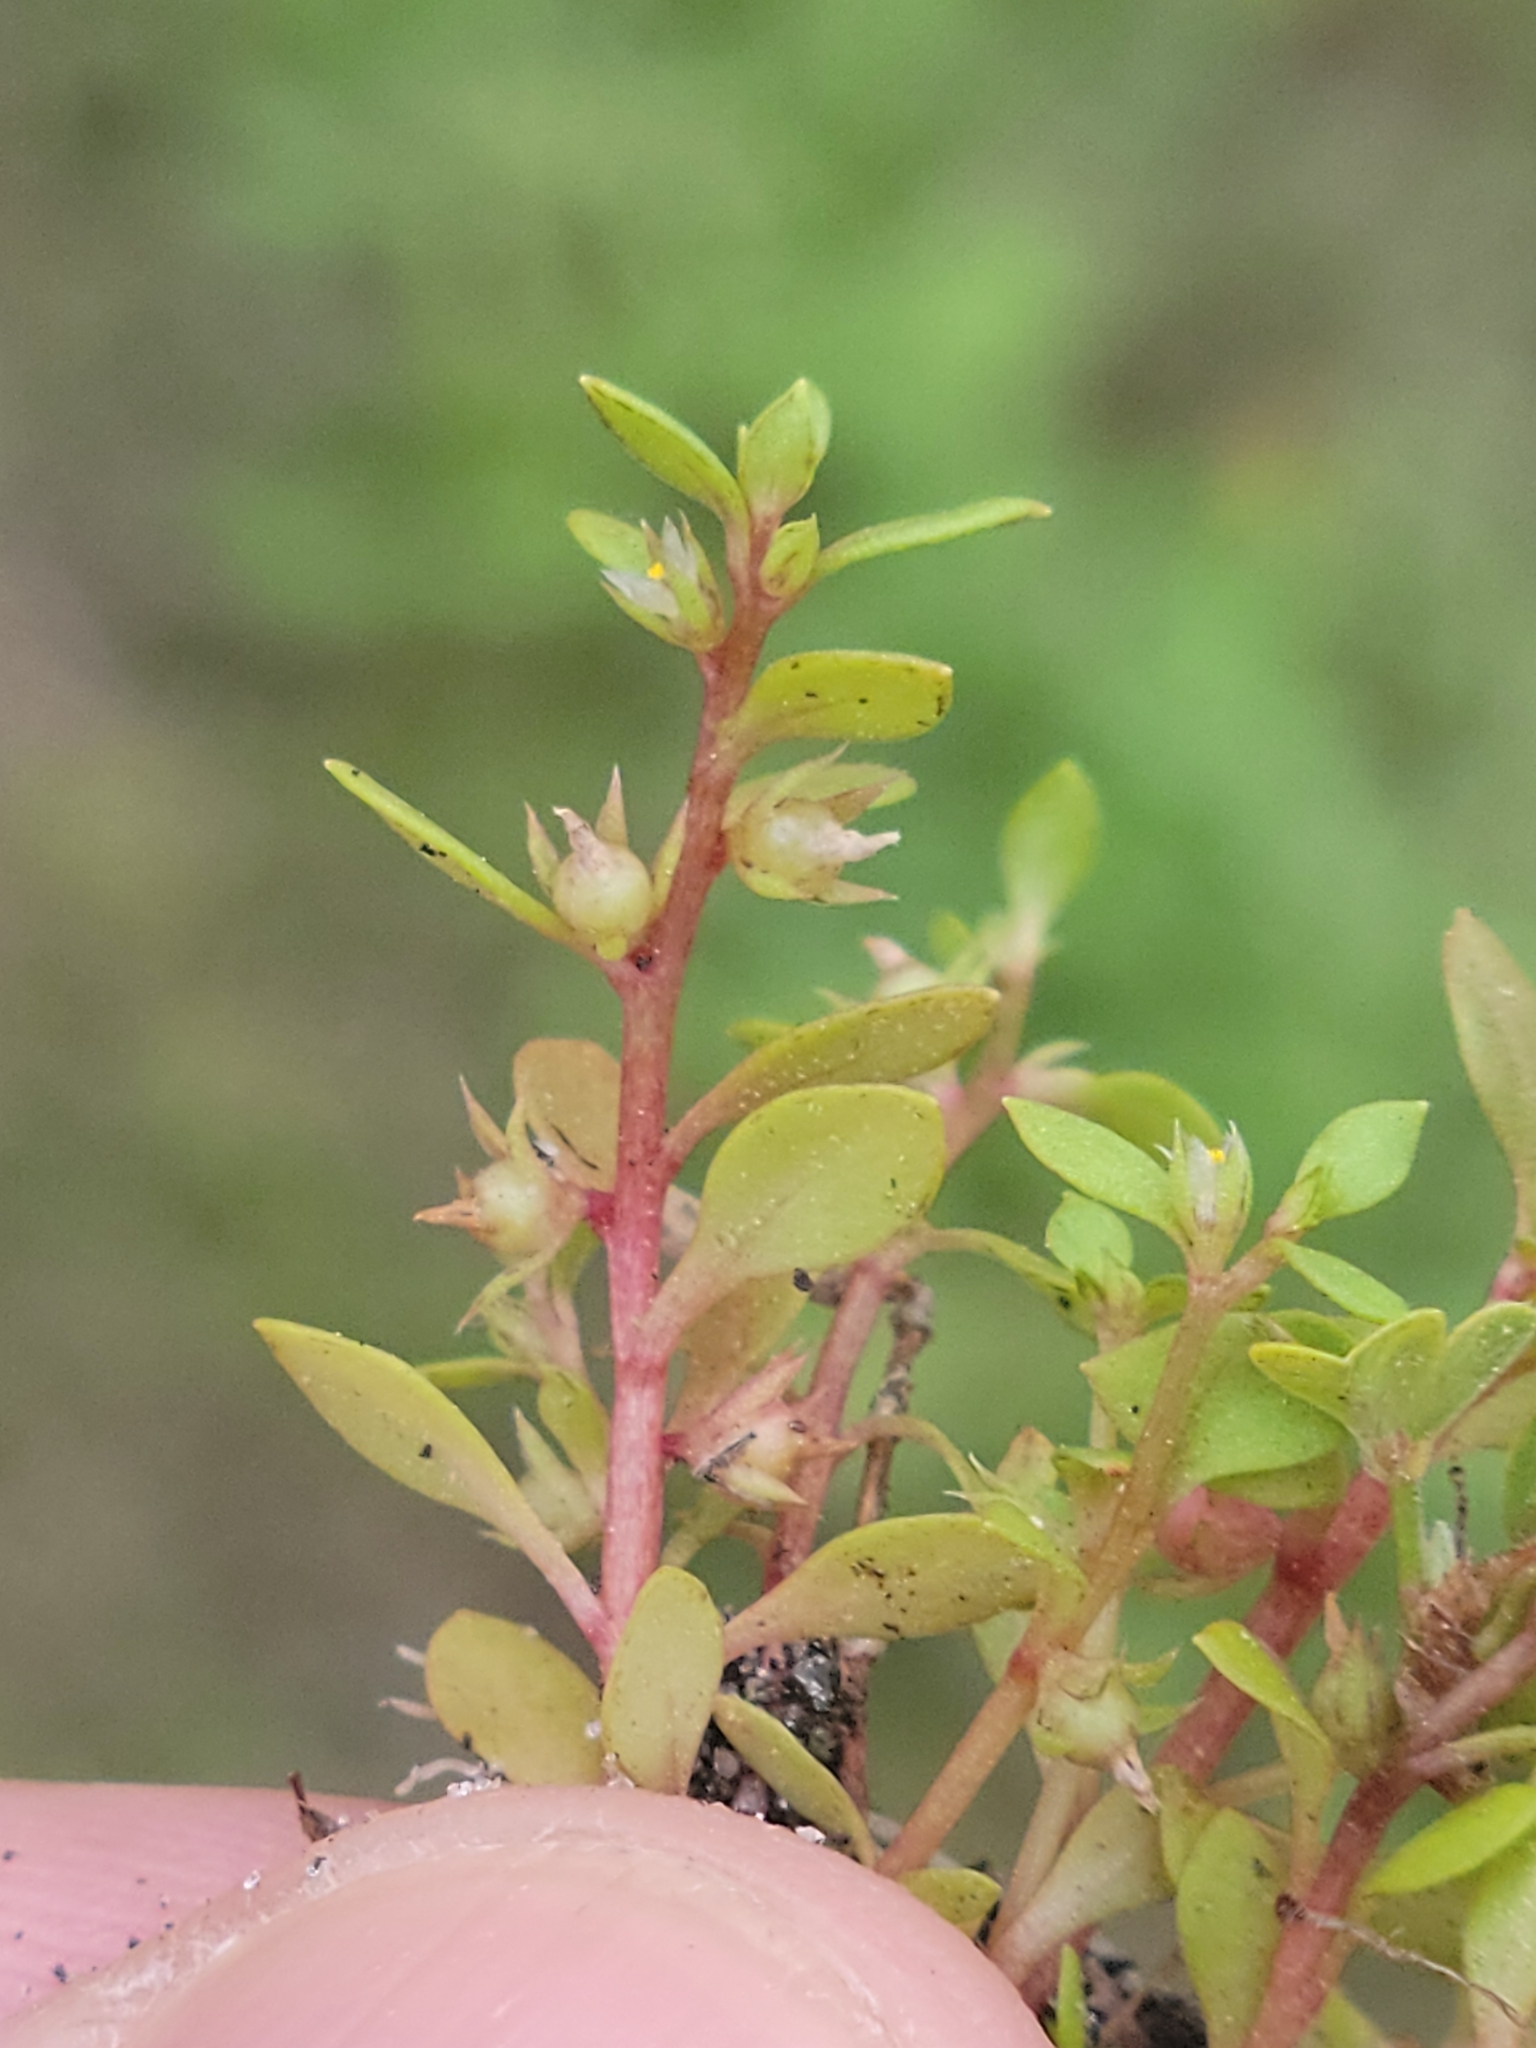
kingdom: Plantae
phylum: Tracheophyta
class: Magnoliopsida
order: Ericales
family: Primulaceae
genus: Lysimachia
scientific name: Lysimachia minima
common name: Chaffweed
